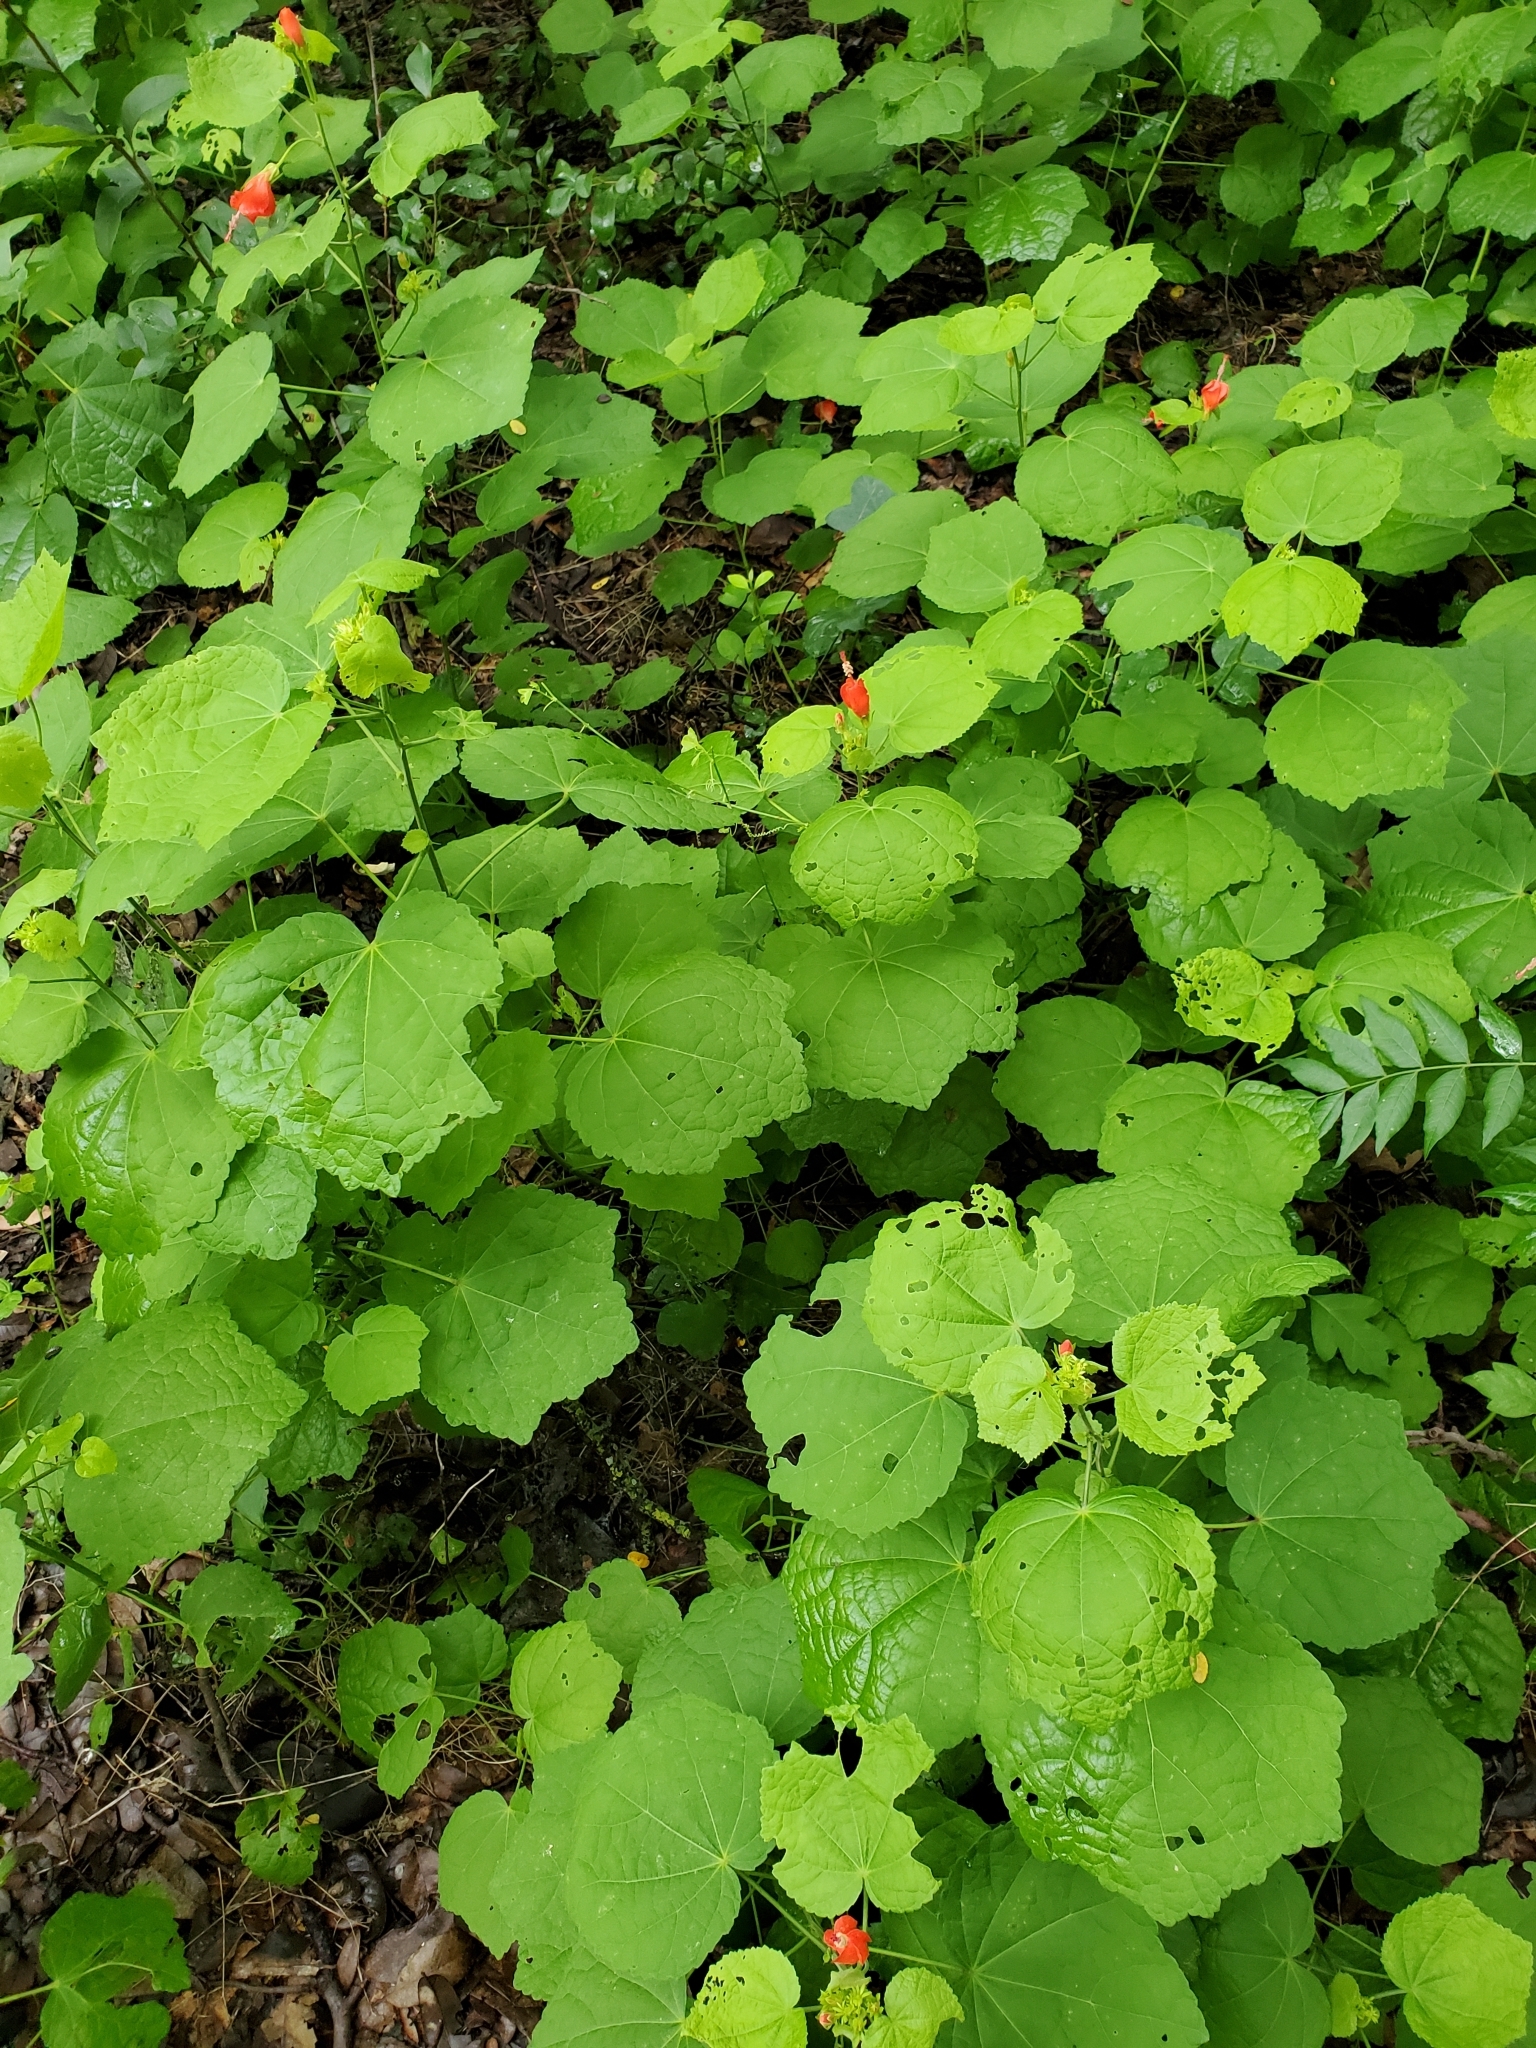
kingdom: Plantae
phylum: Tracheophyta
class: Magnoliopsida
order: Malvales
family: Malvaceae
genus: Malvaviscus
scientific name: Malvaviscus arboreus
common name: Wax mallow
